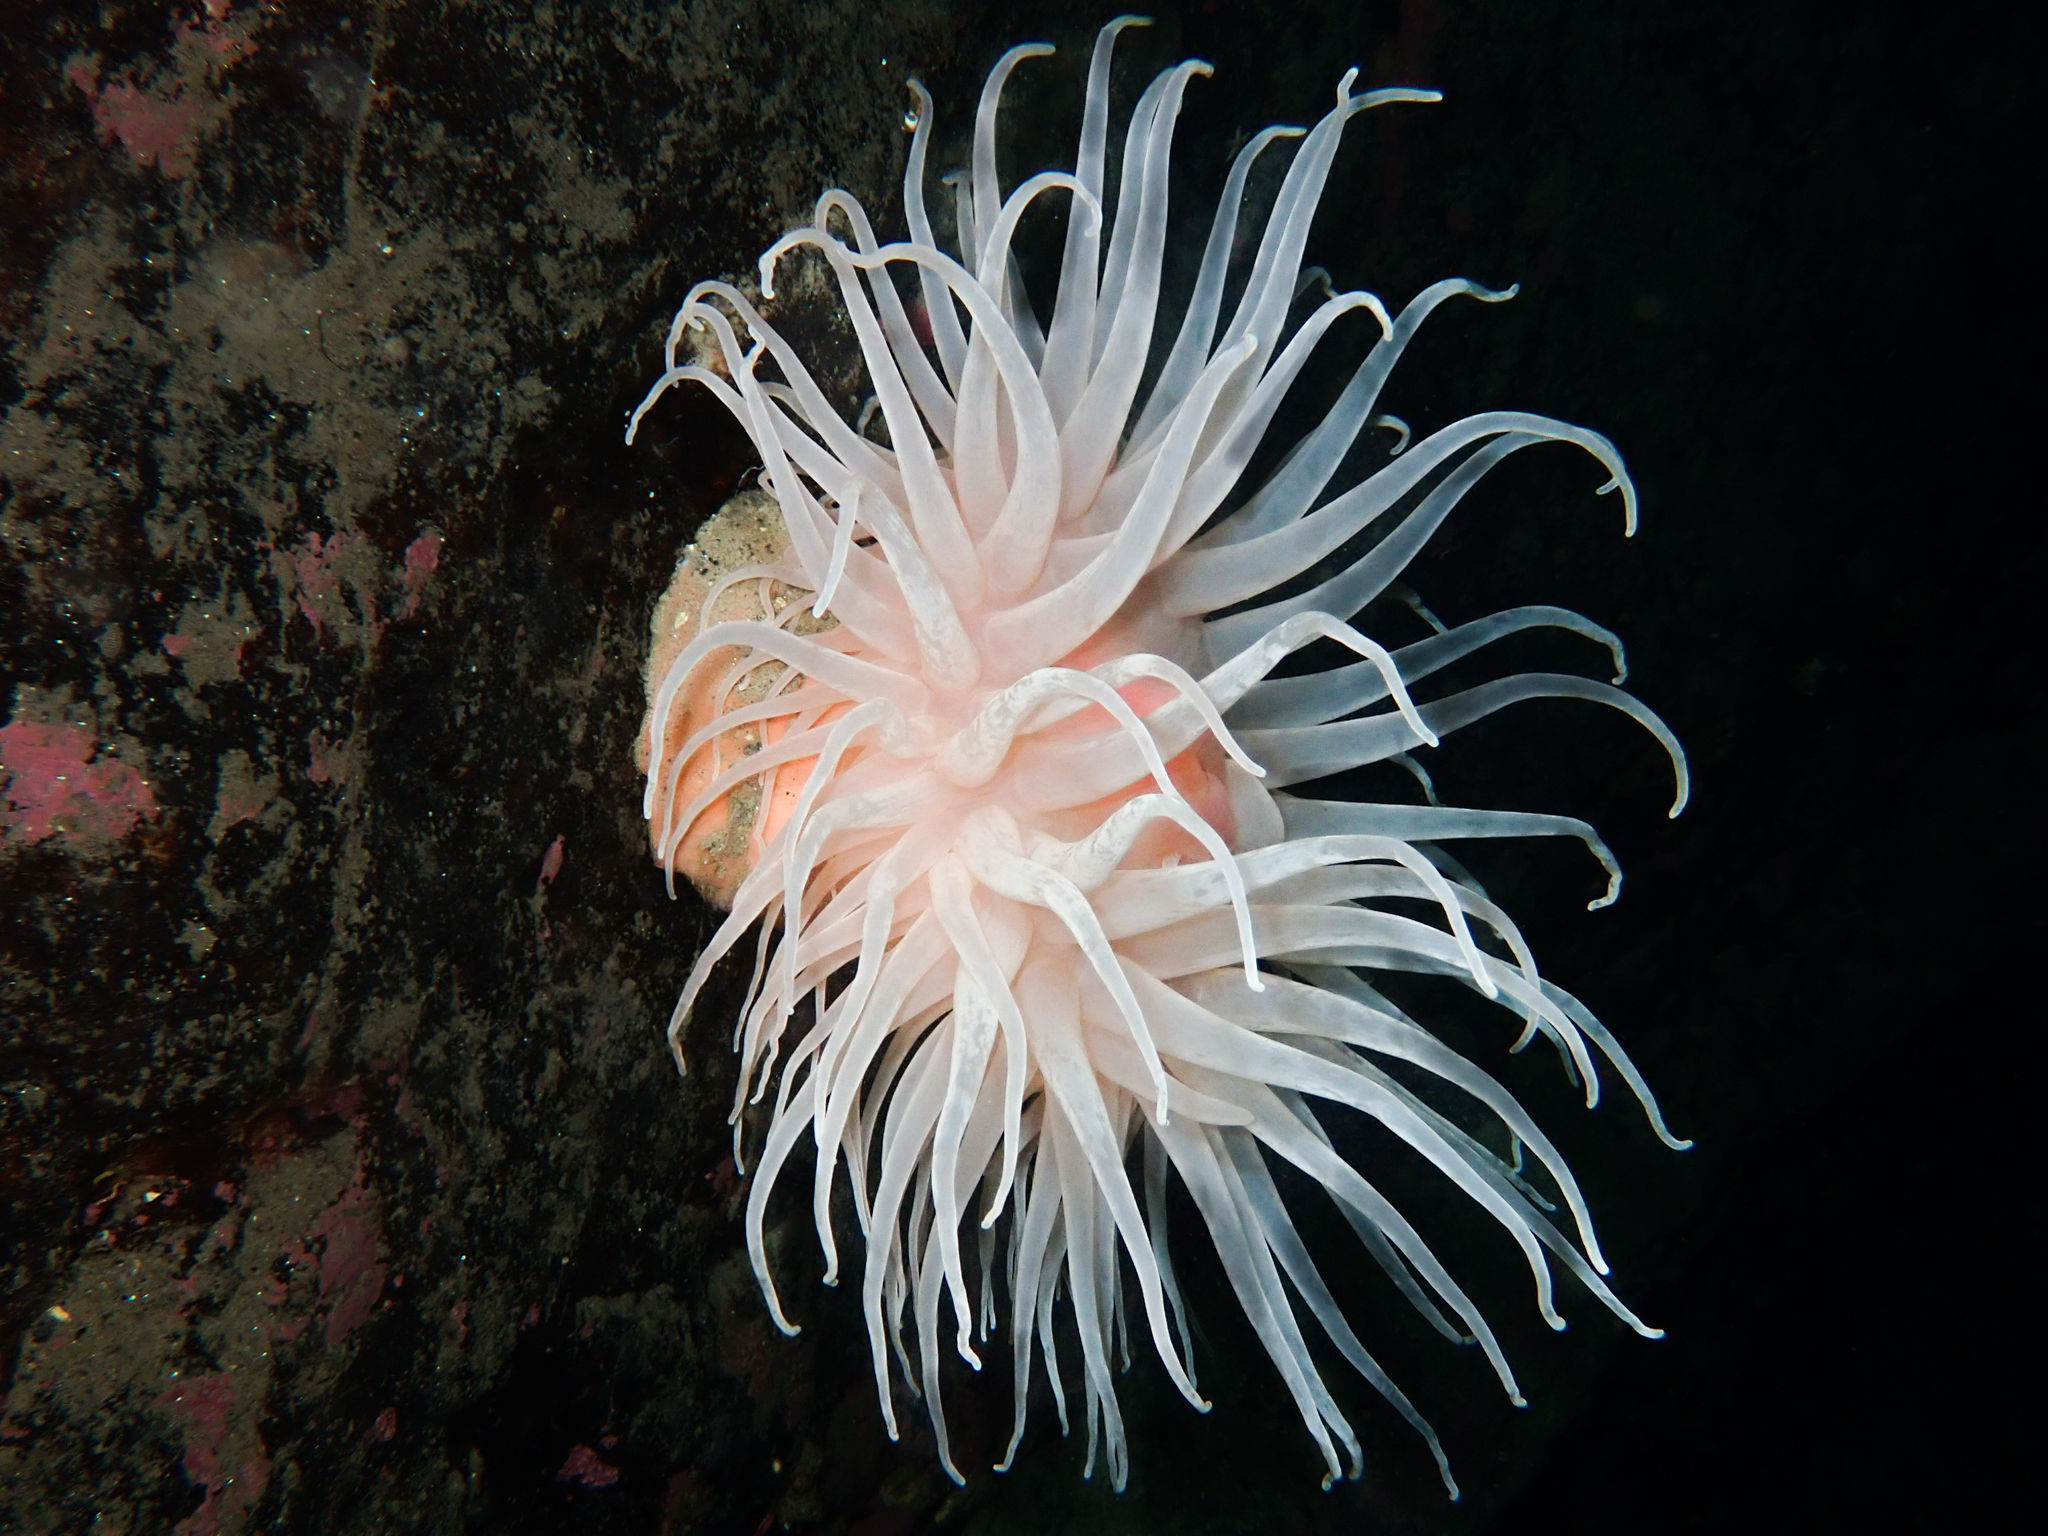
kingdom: Animalia
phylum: Cnidaria
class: Anthozoa
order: Actiniaria
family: Actiniidae
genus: Bolocera
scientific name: Bolocera tuediae
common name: Deeplet sea anemone
